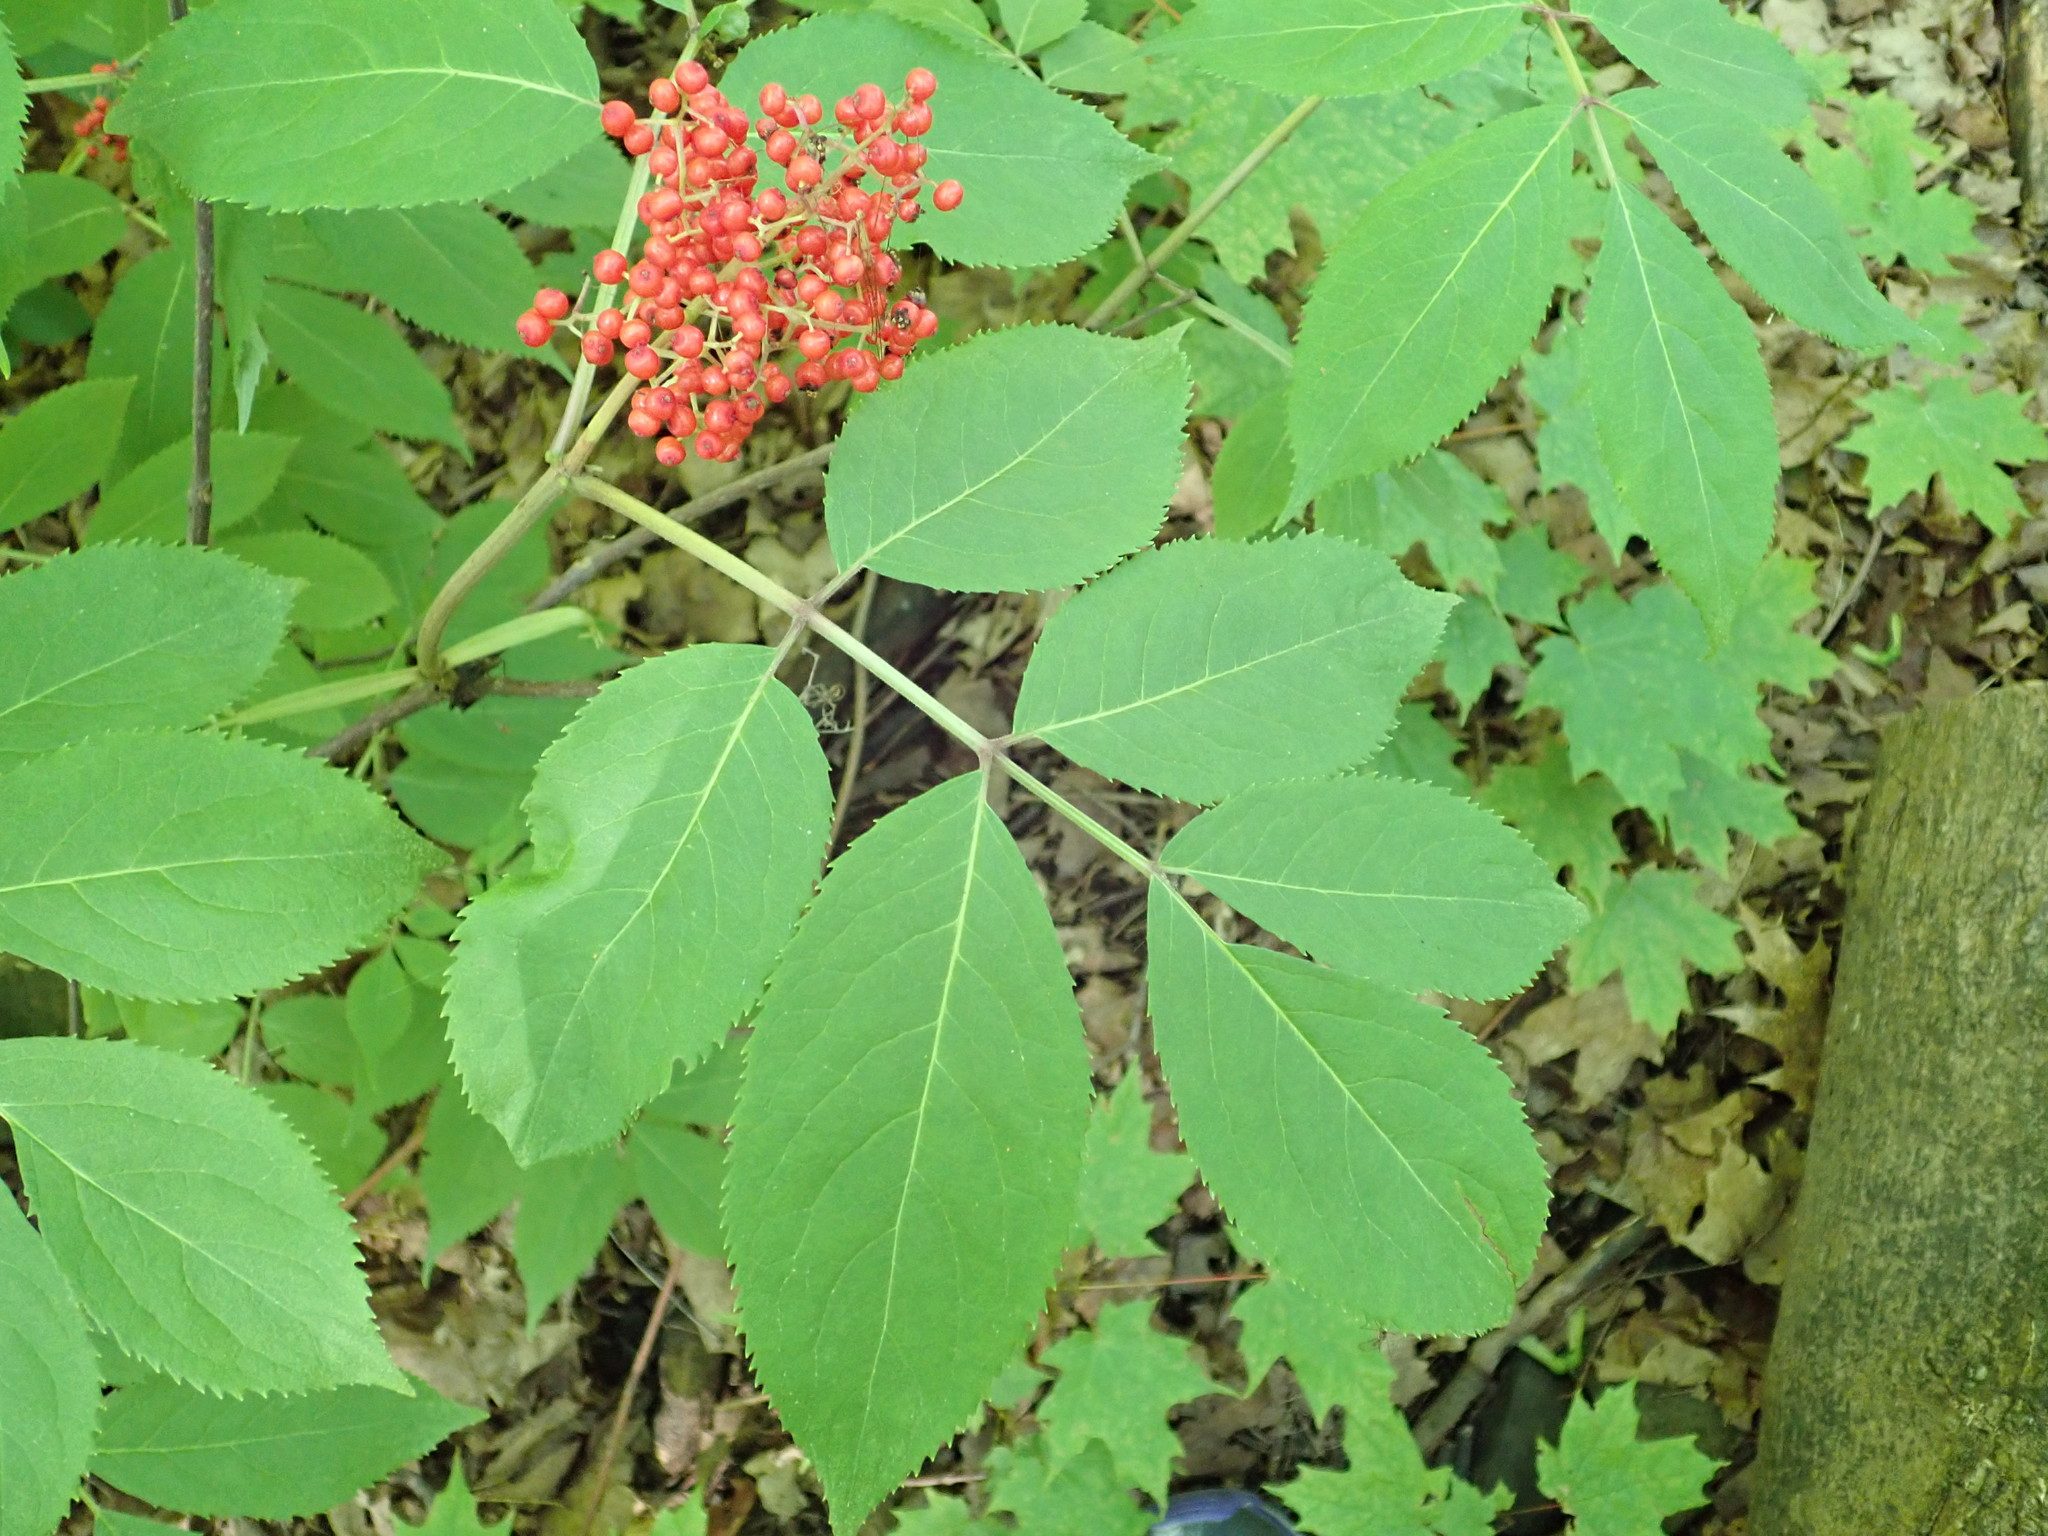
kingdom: Plantae
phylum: Tracheophyta
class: Magnoliopsida
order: Dipsacales
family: Viburnaceae
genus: Sambucus
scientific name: Sambucus racemosa
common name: Red-berried elder
